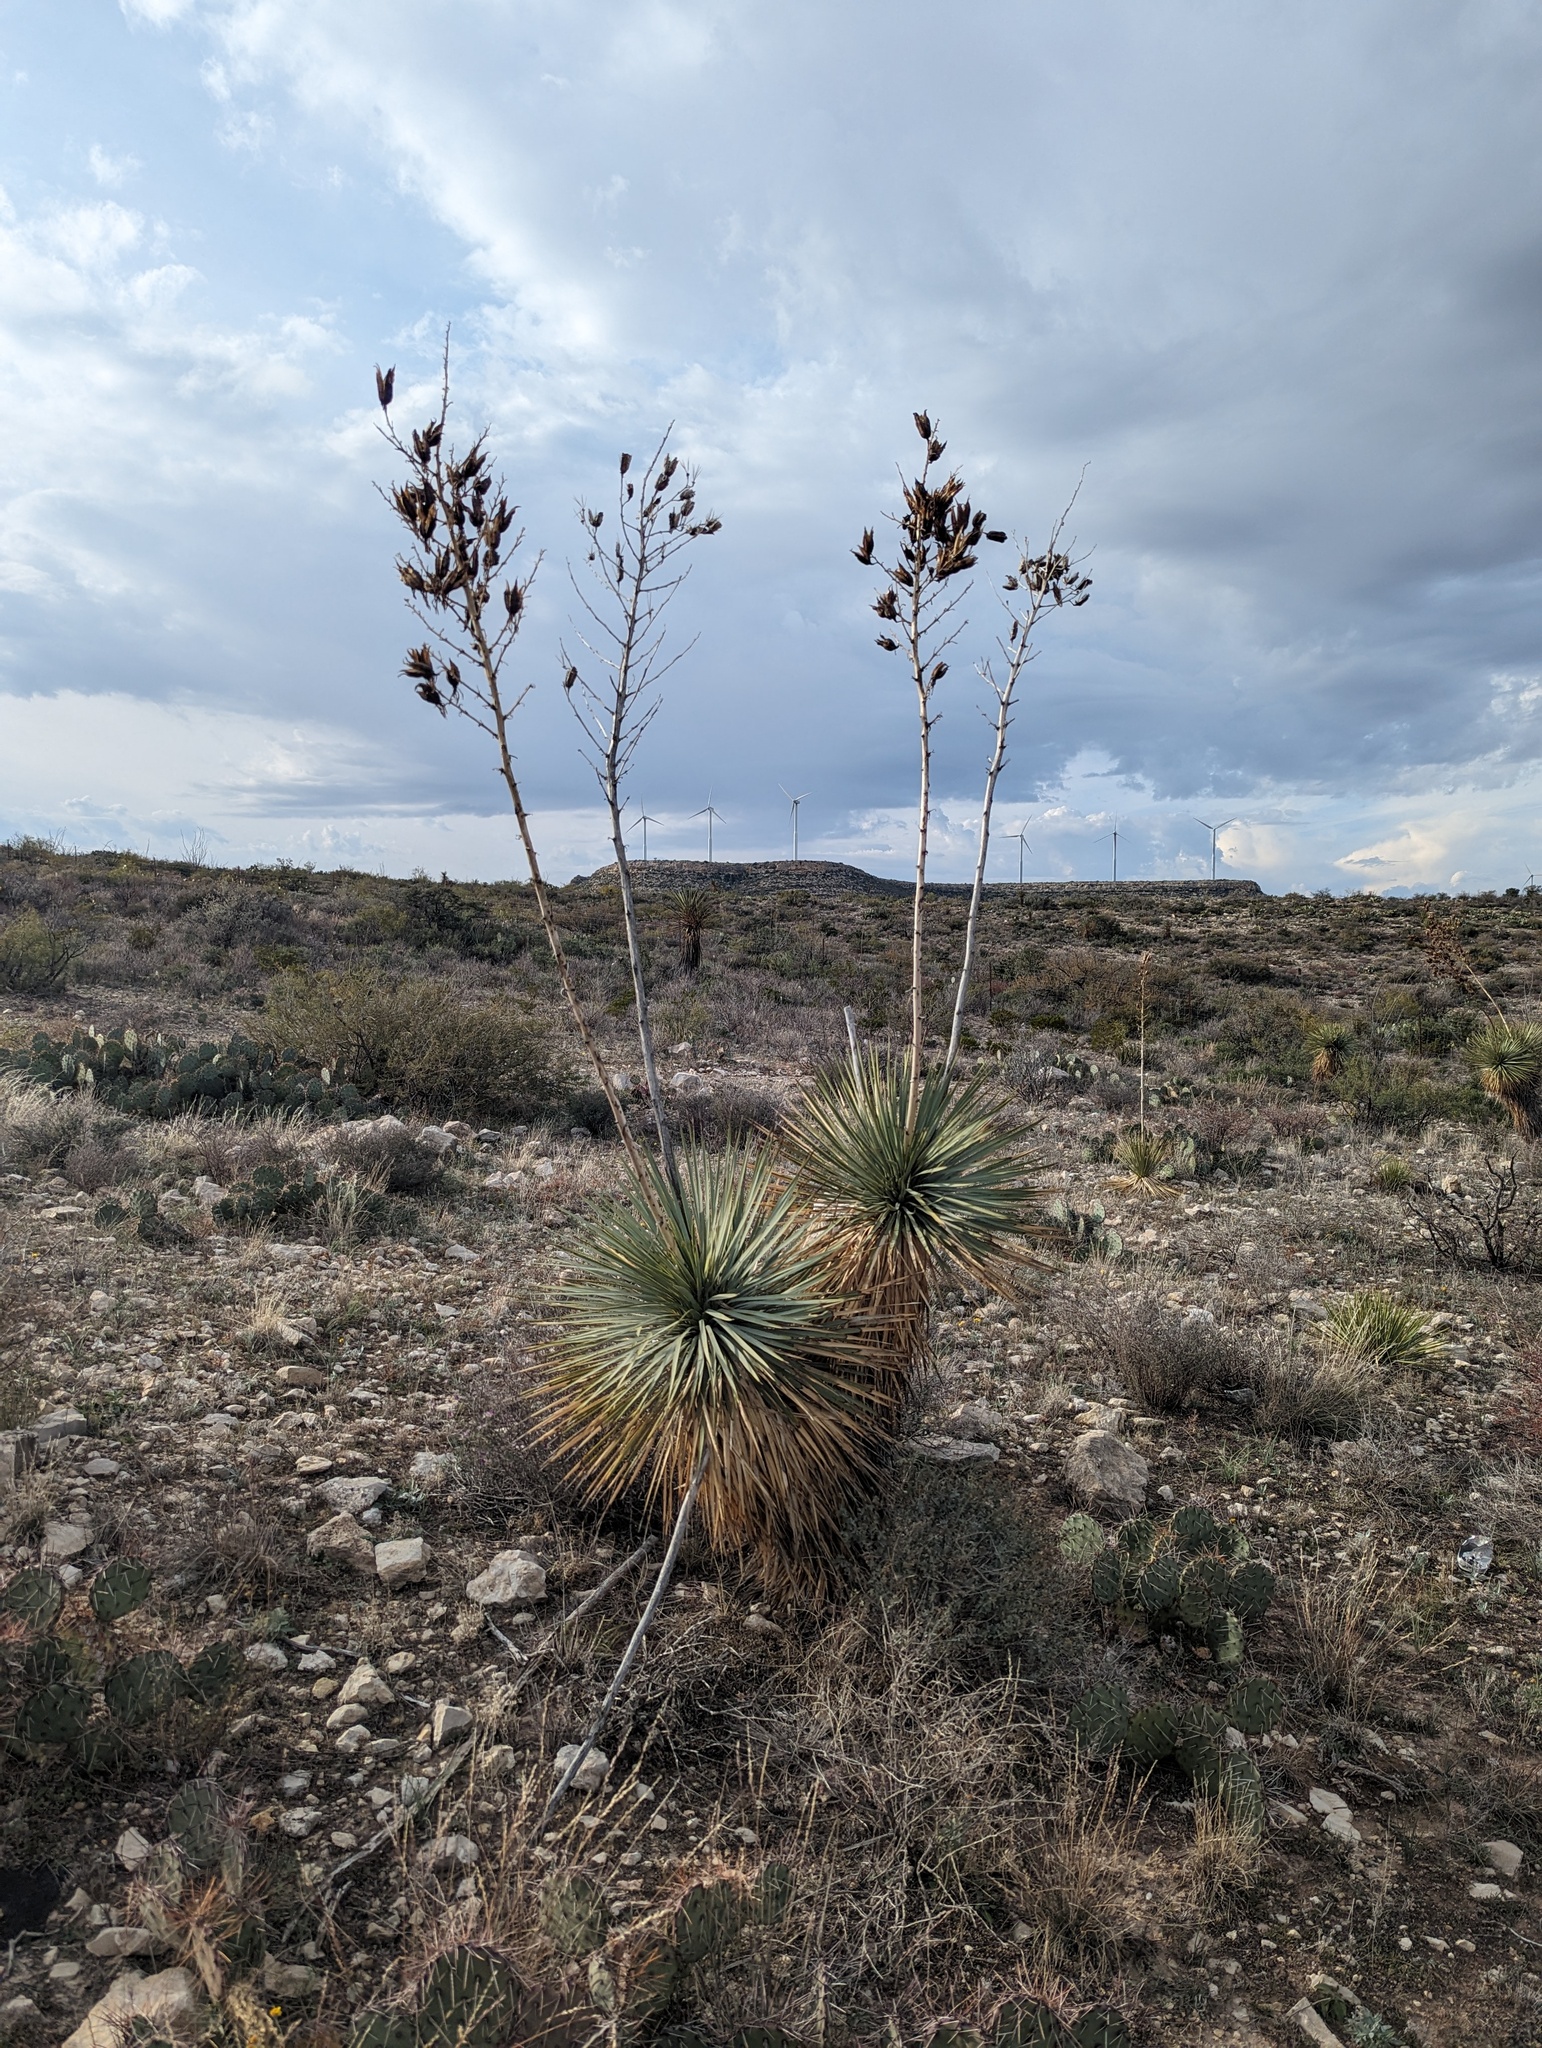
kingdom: Plantae
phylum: Tracheophyta
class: Liliopsida
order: Asparagales
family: Asparagaceae
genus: Yucca
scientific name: Yucca thompsoniana
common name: Trans-pecos yucca
